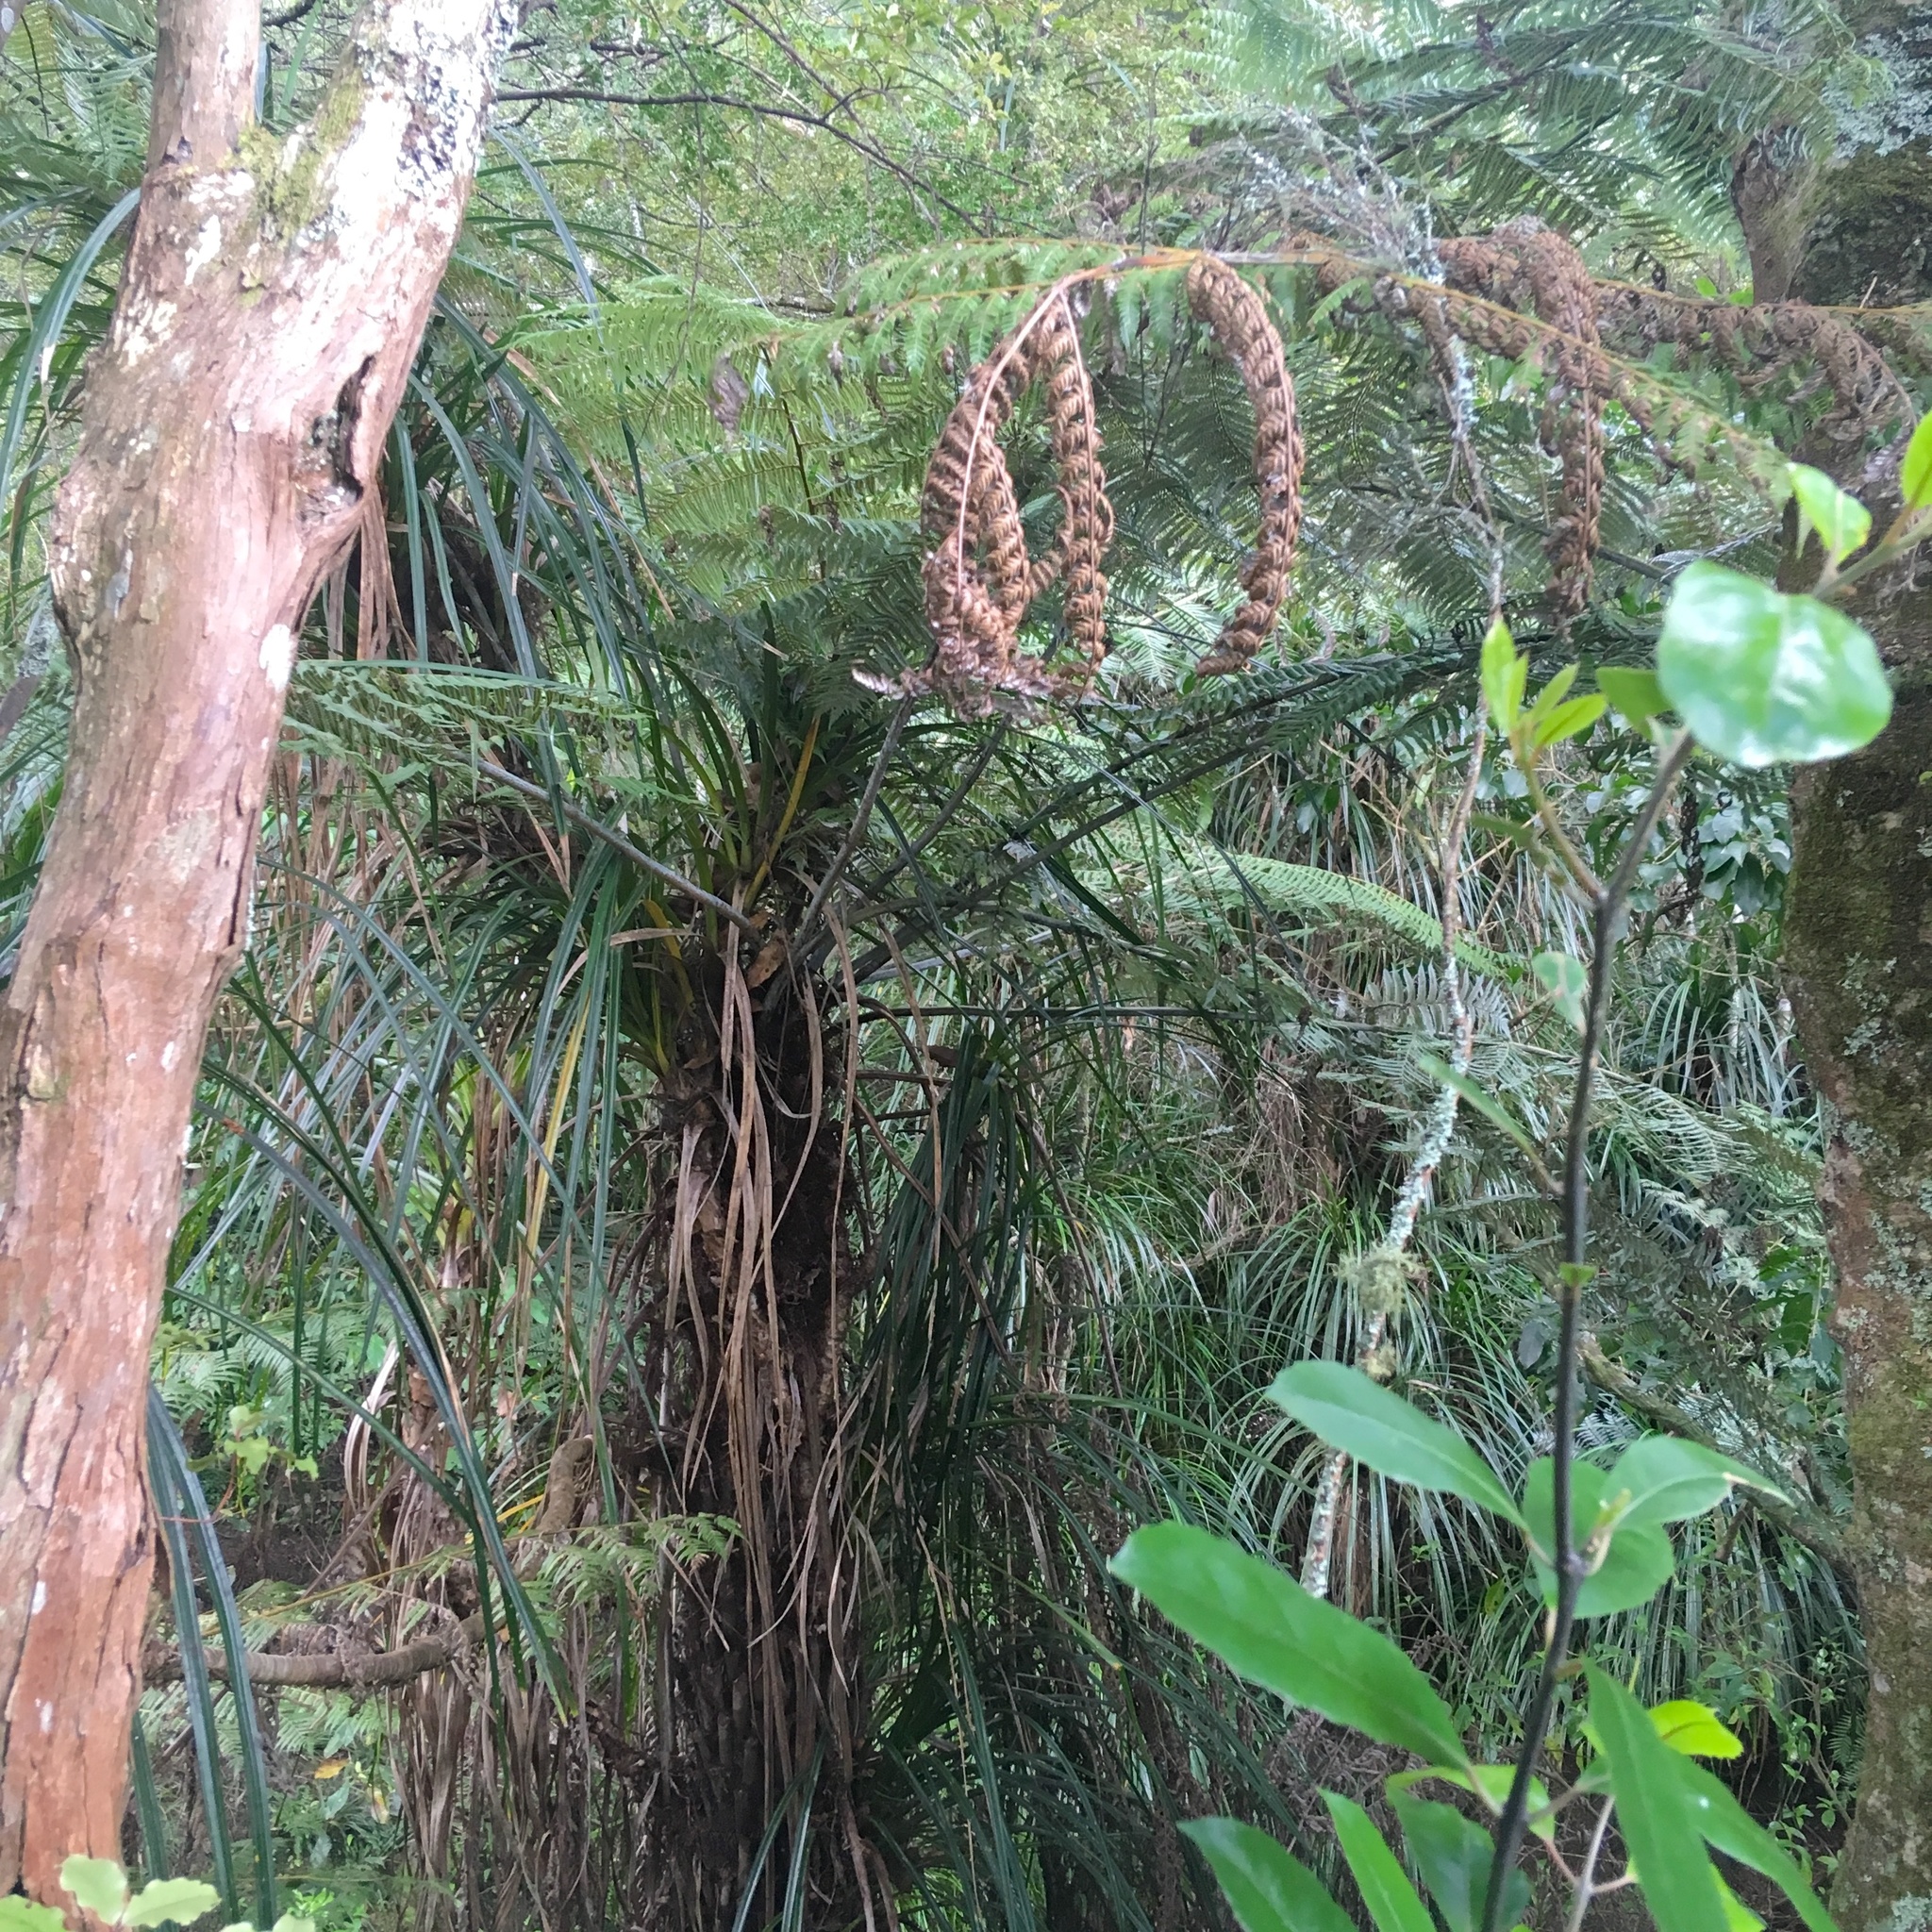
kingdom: Plantae
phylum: Tracheophyta
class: Liliopsida
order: Pandanales
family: Pandanaceae
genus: Freycinetia
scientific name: Freycinetia banksii
